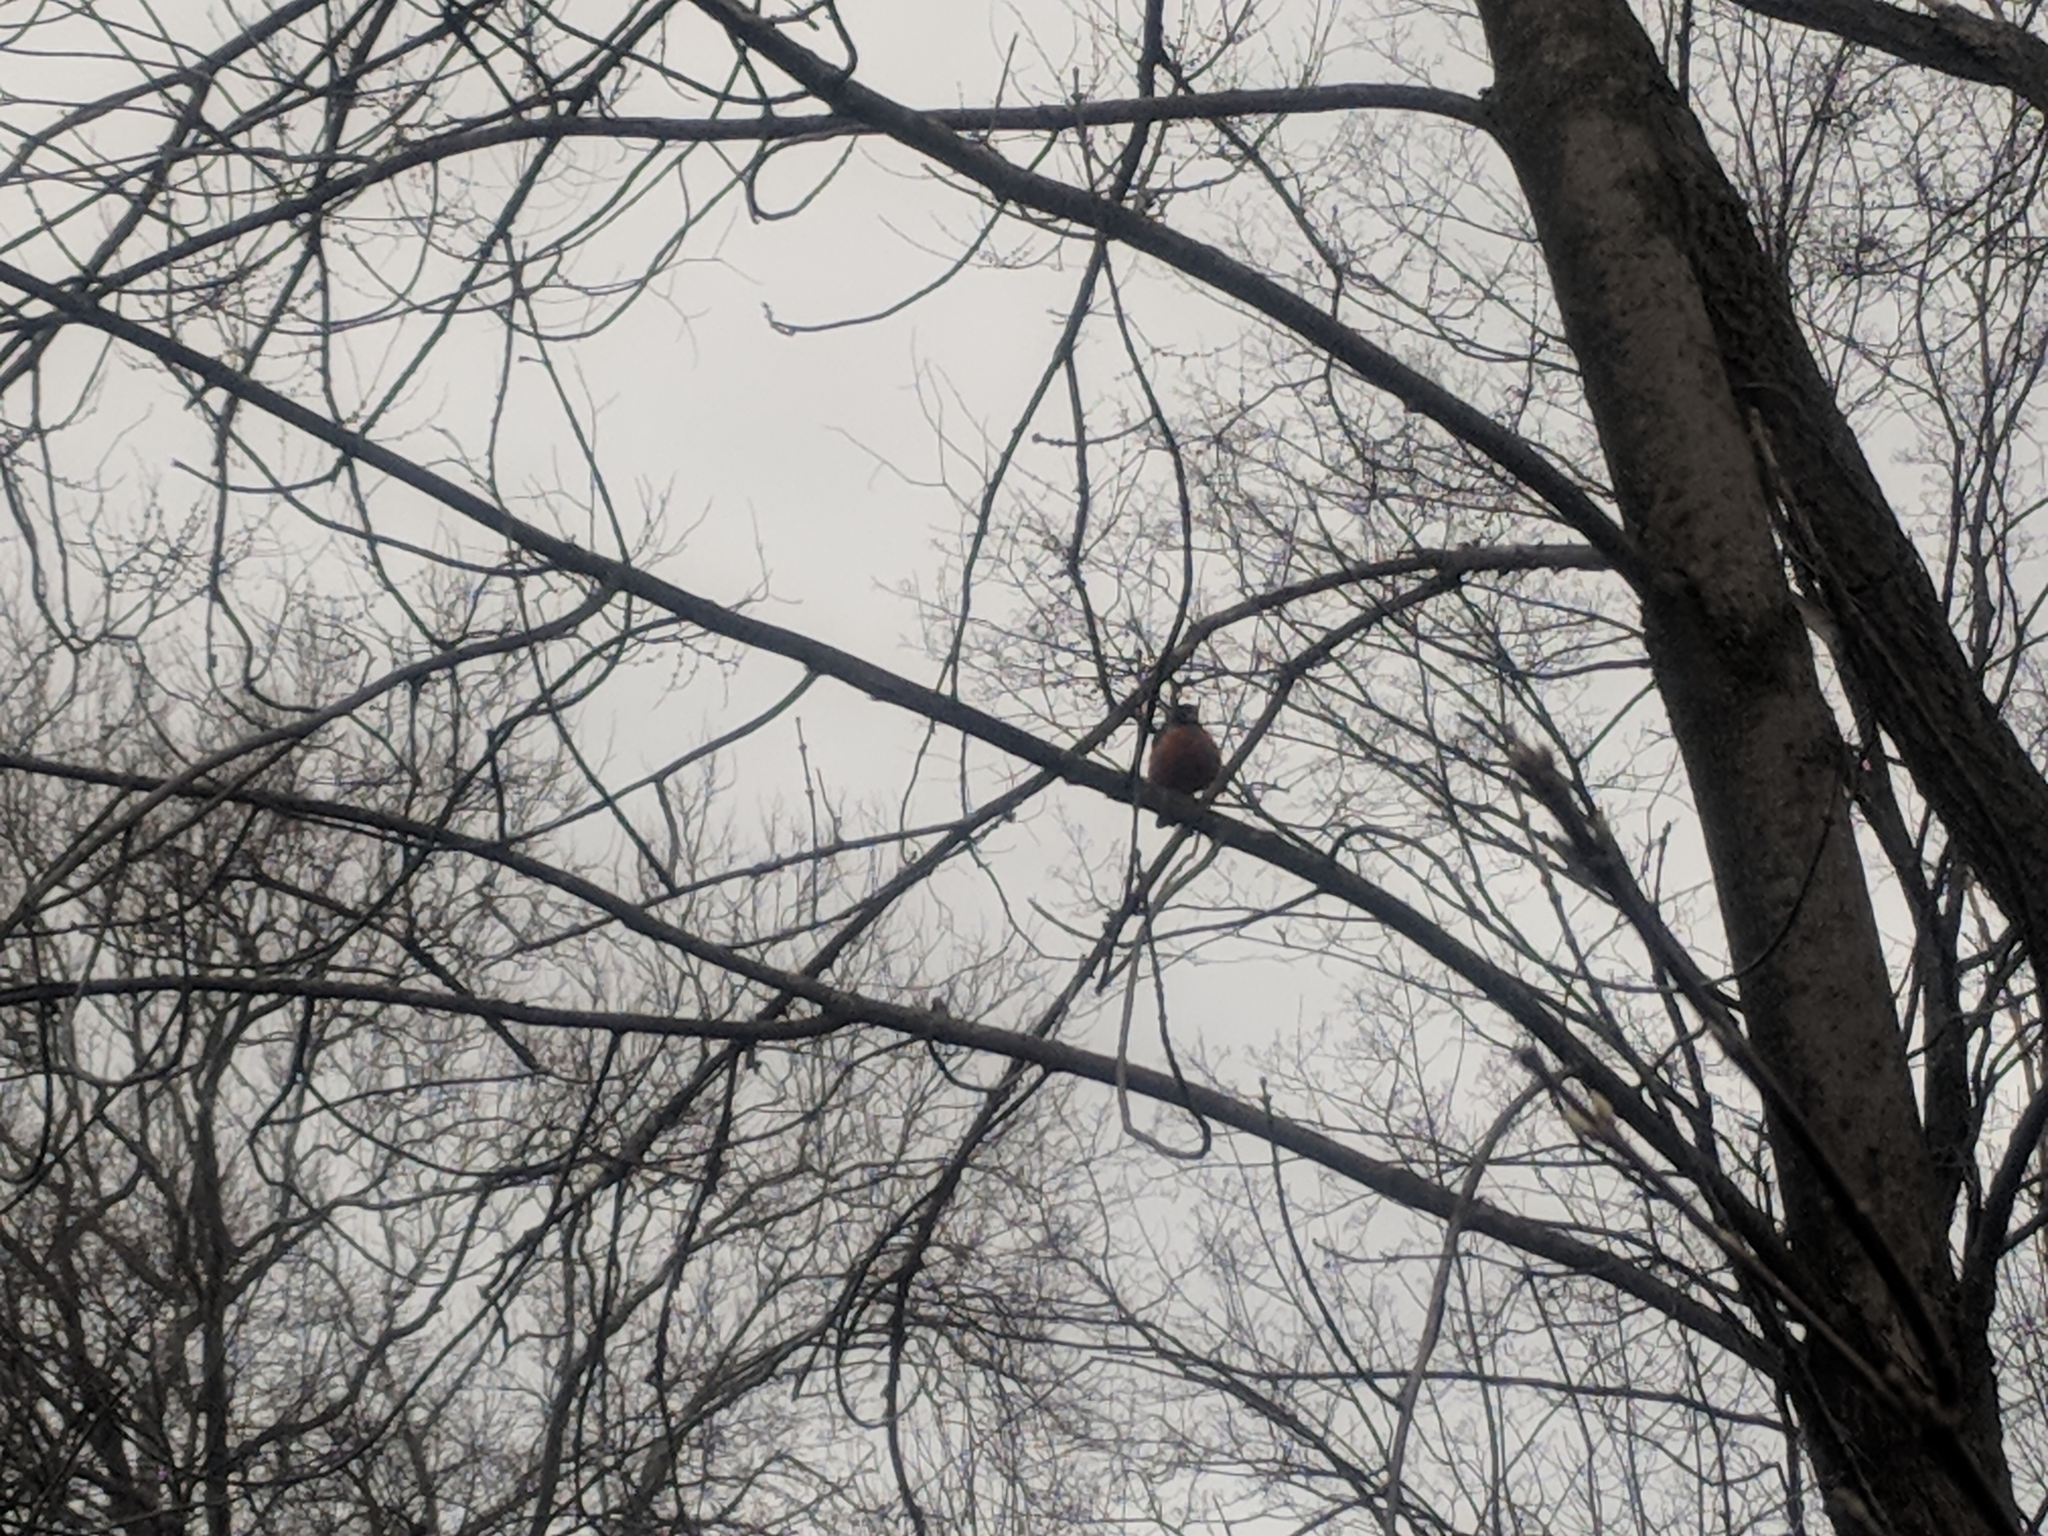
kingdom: Animalia
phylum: Chordata
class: Aves
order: Passeriformes
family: Turdidae
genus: Turdus
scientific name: Turdus migratorius
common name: American robin
